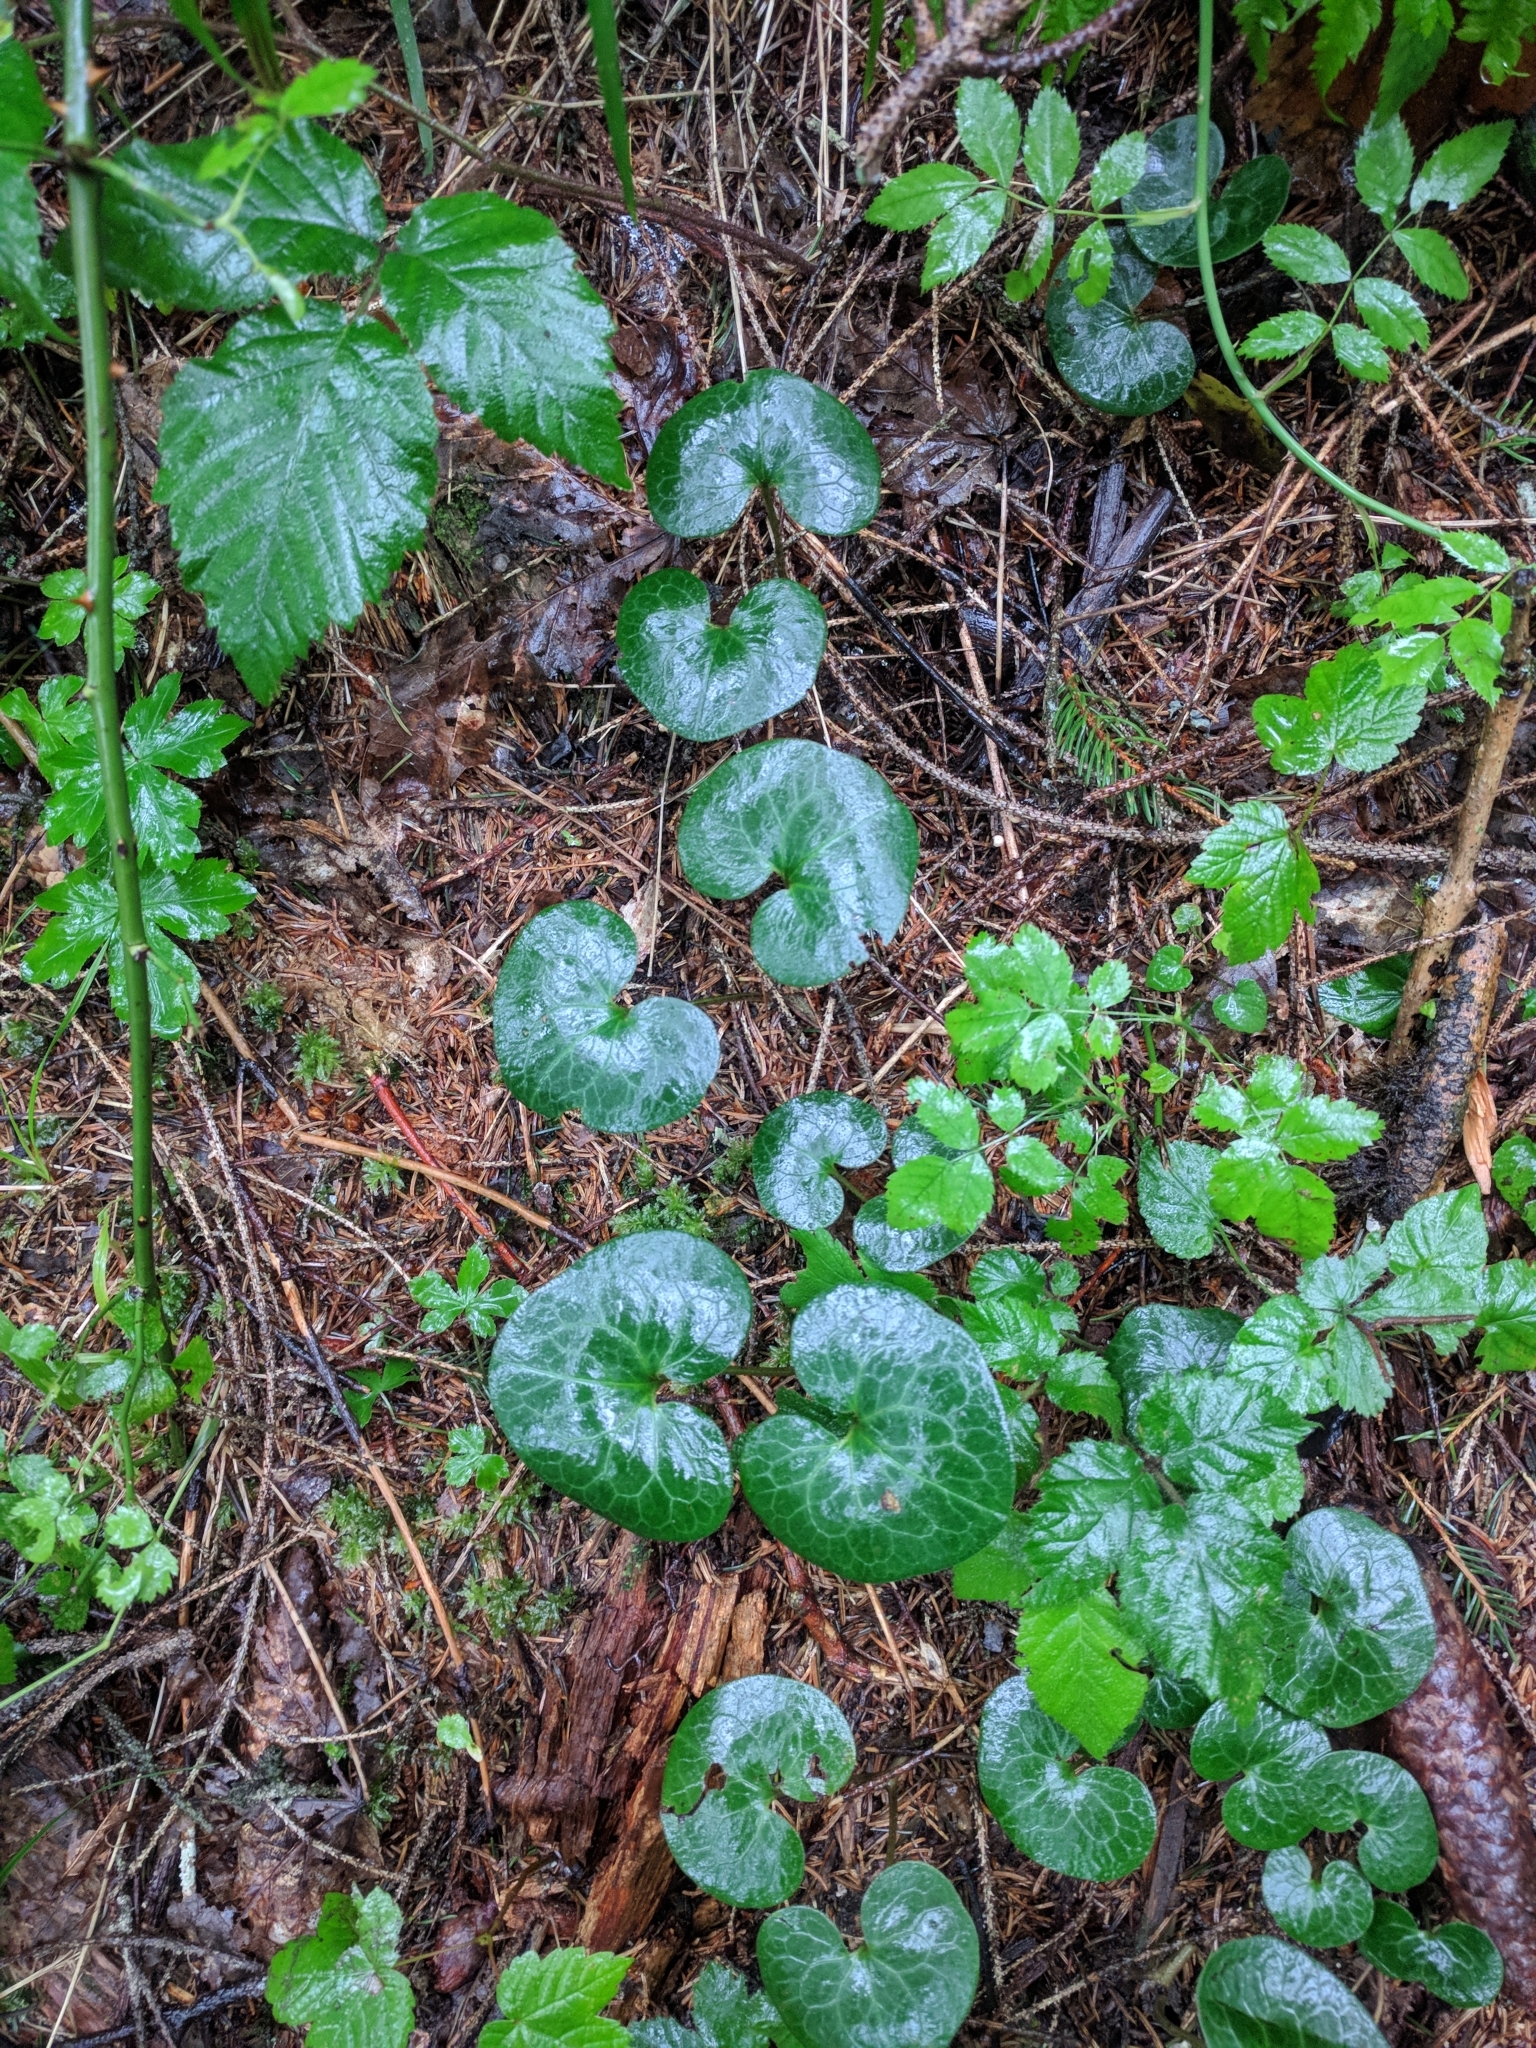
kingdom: Plantae
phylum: Tracheophyta
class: Magnoliopsida
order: Piperales
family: Aristolochiaceae
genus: Asarum
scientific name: Asarum europaeum
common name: Asarabacca
